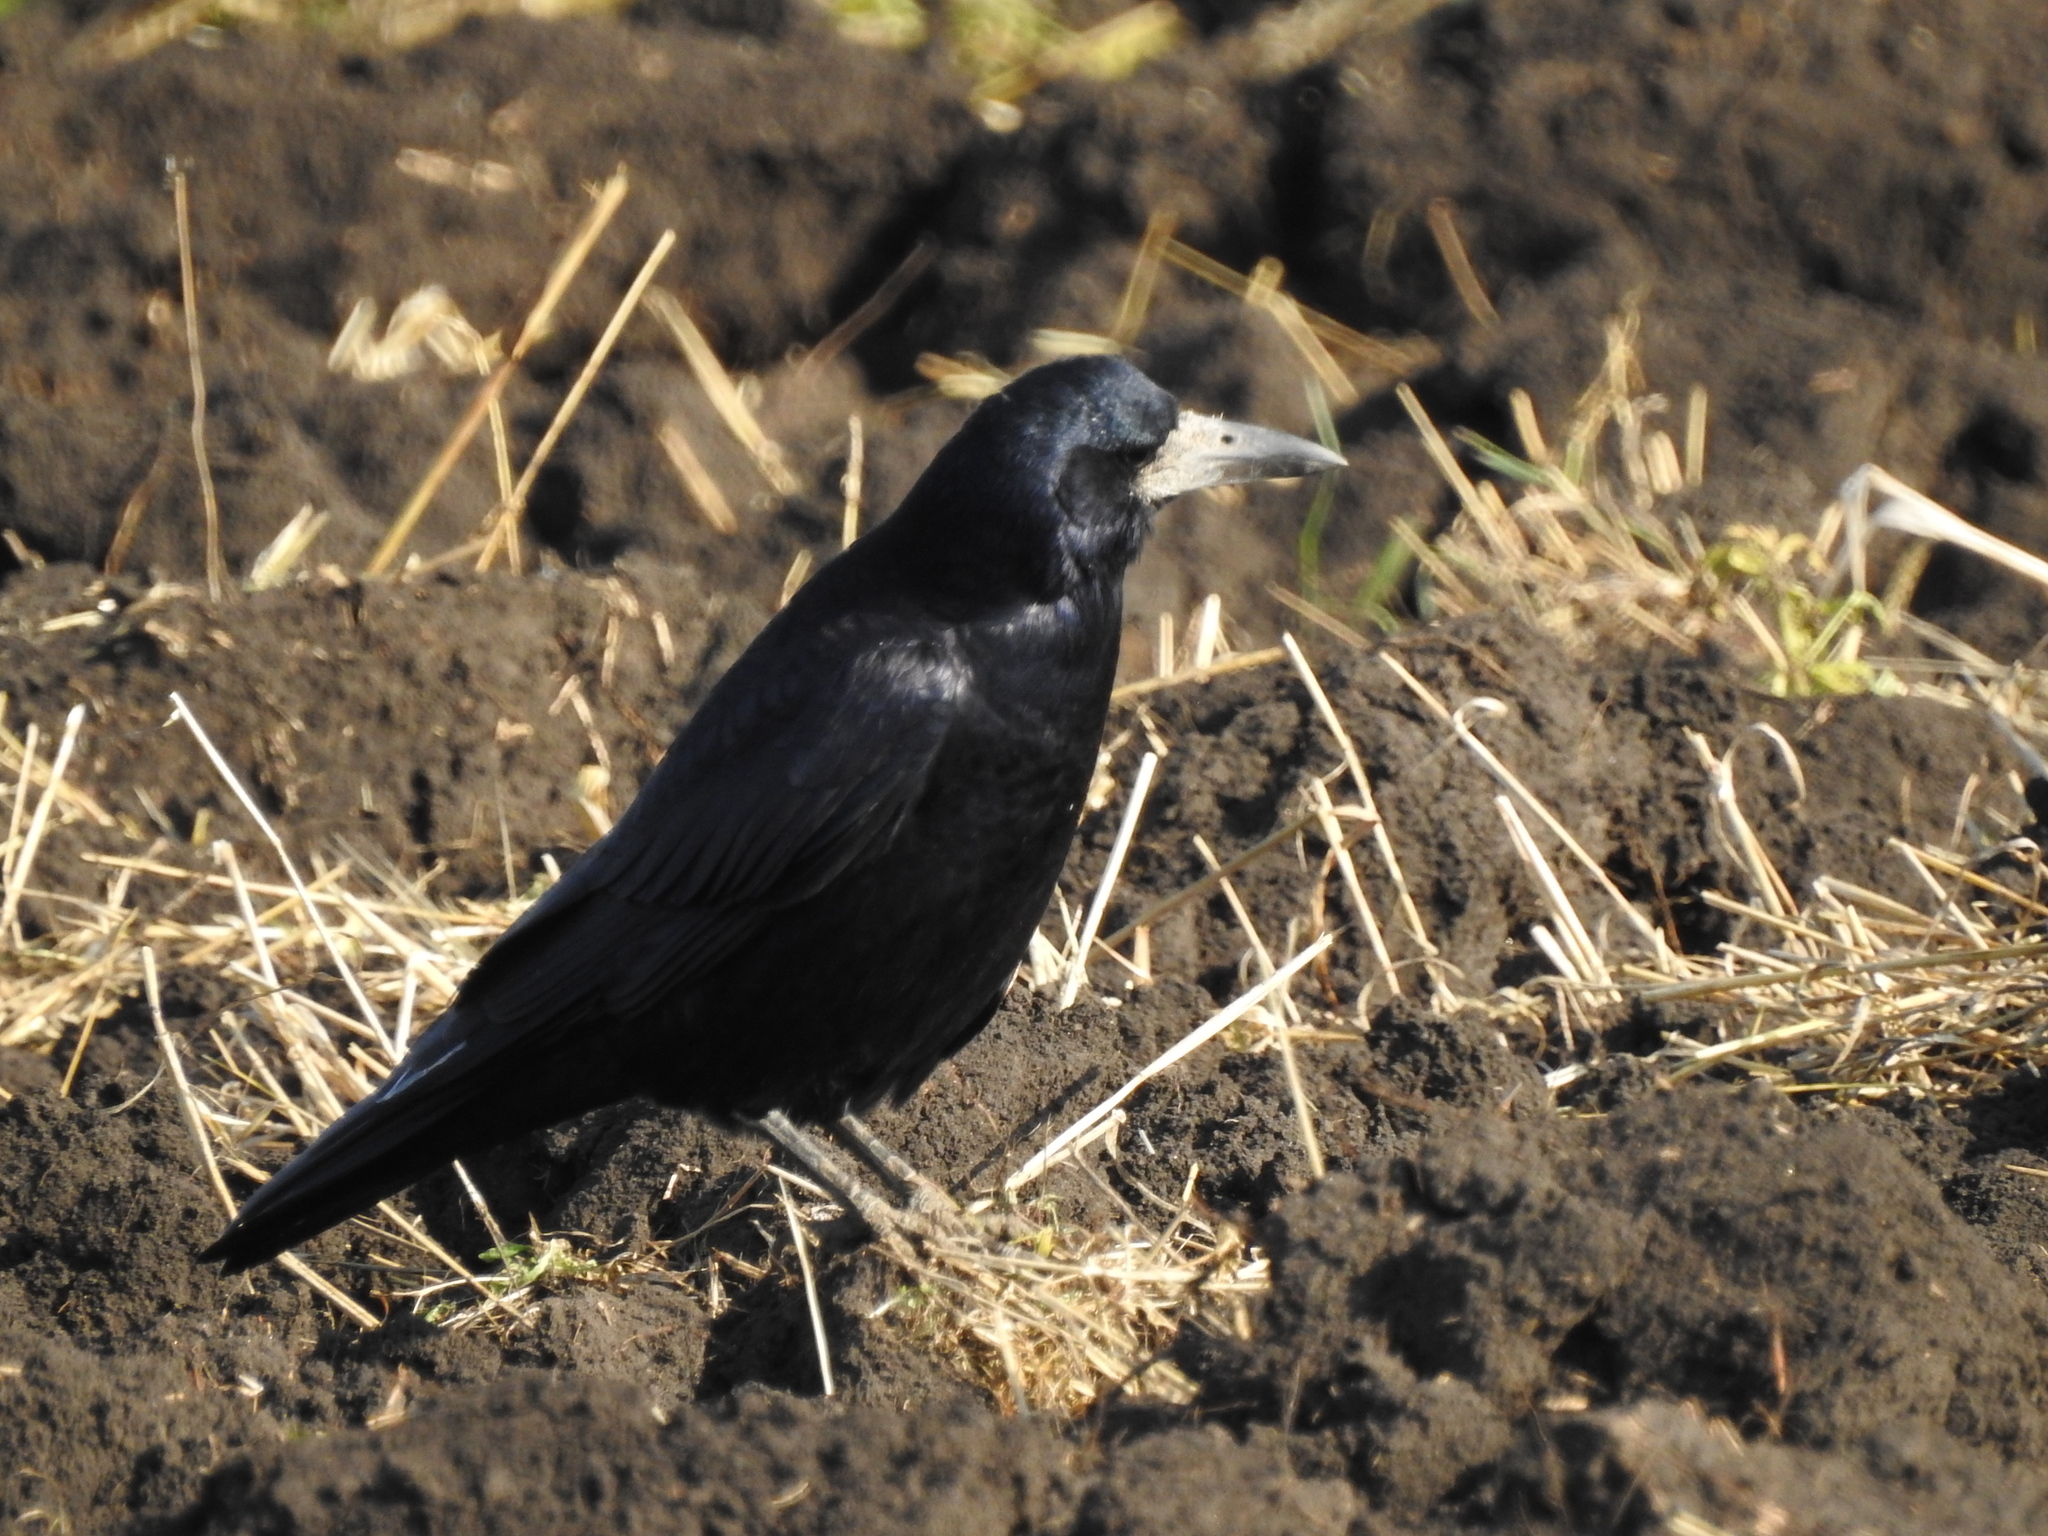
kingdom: Animalia
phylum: Chordata
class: Aves
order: Passeriformes
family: Corvidae
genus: Corvus
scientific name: Corvus frugilegus
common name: Rook
